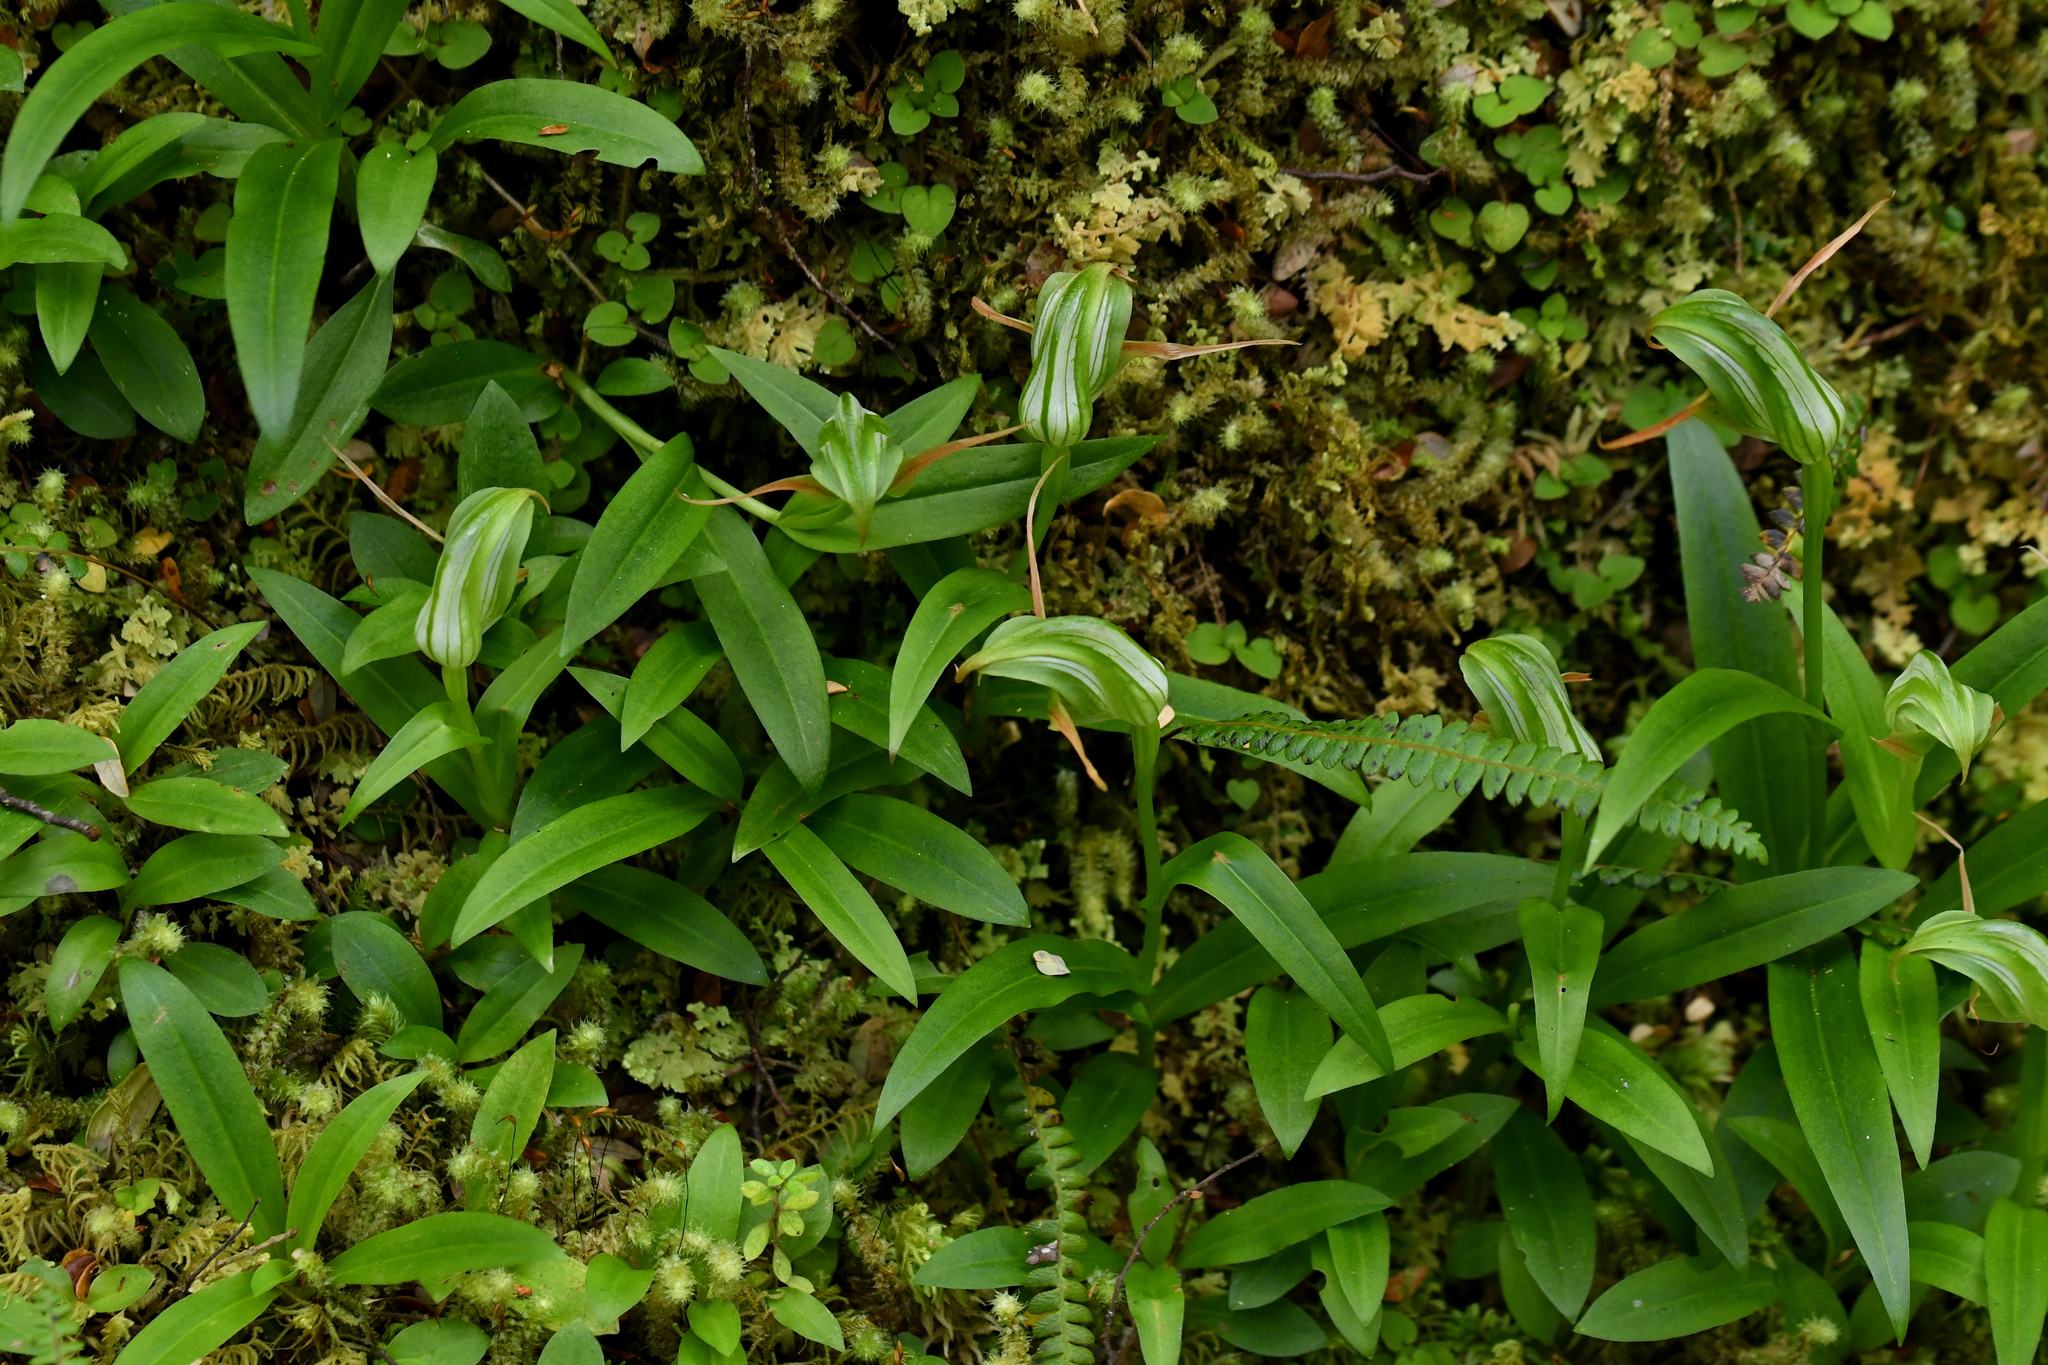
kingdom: Plantae
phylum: Tracheophyta
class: Liliopsida
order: Asparagales
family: Orchidaceae
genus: Pterostylis
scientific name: Pterostylis australis
